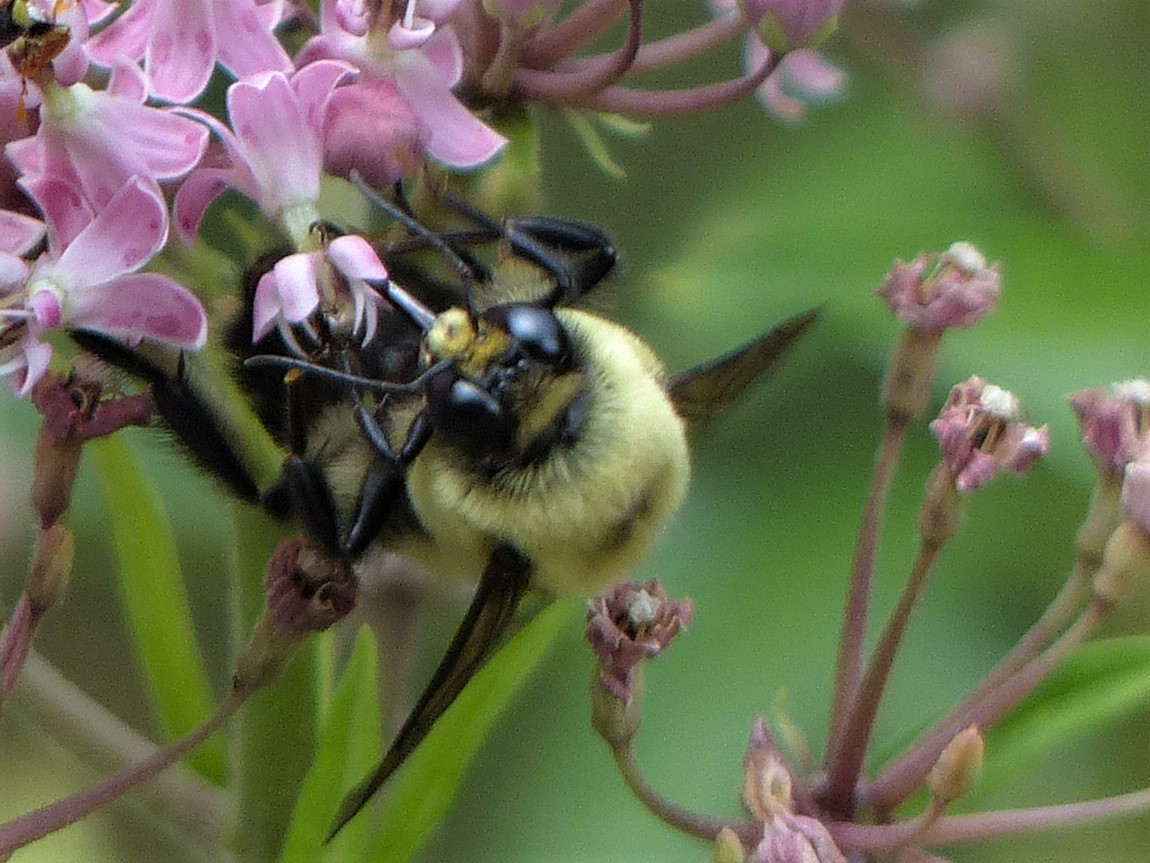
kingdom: Animalia
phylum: Arthropoda
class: Insecta
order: Hymenoptera
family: Apidae
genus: Bombus
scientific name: Bombus griseocollis
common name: Brown-belted bumble bee
